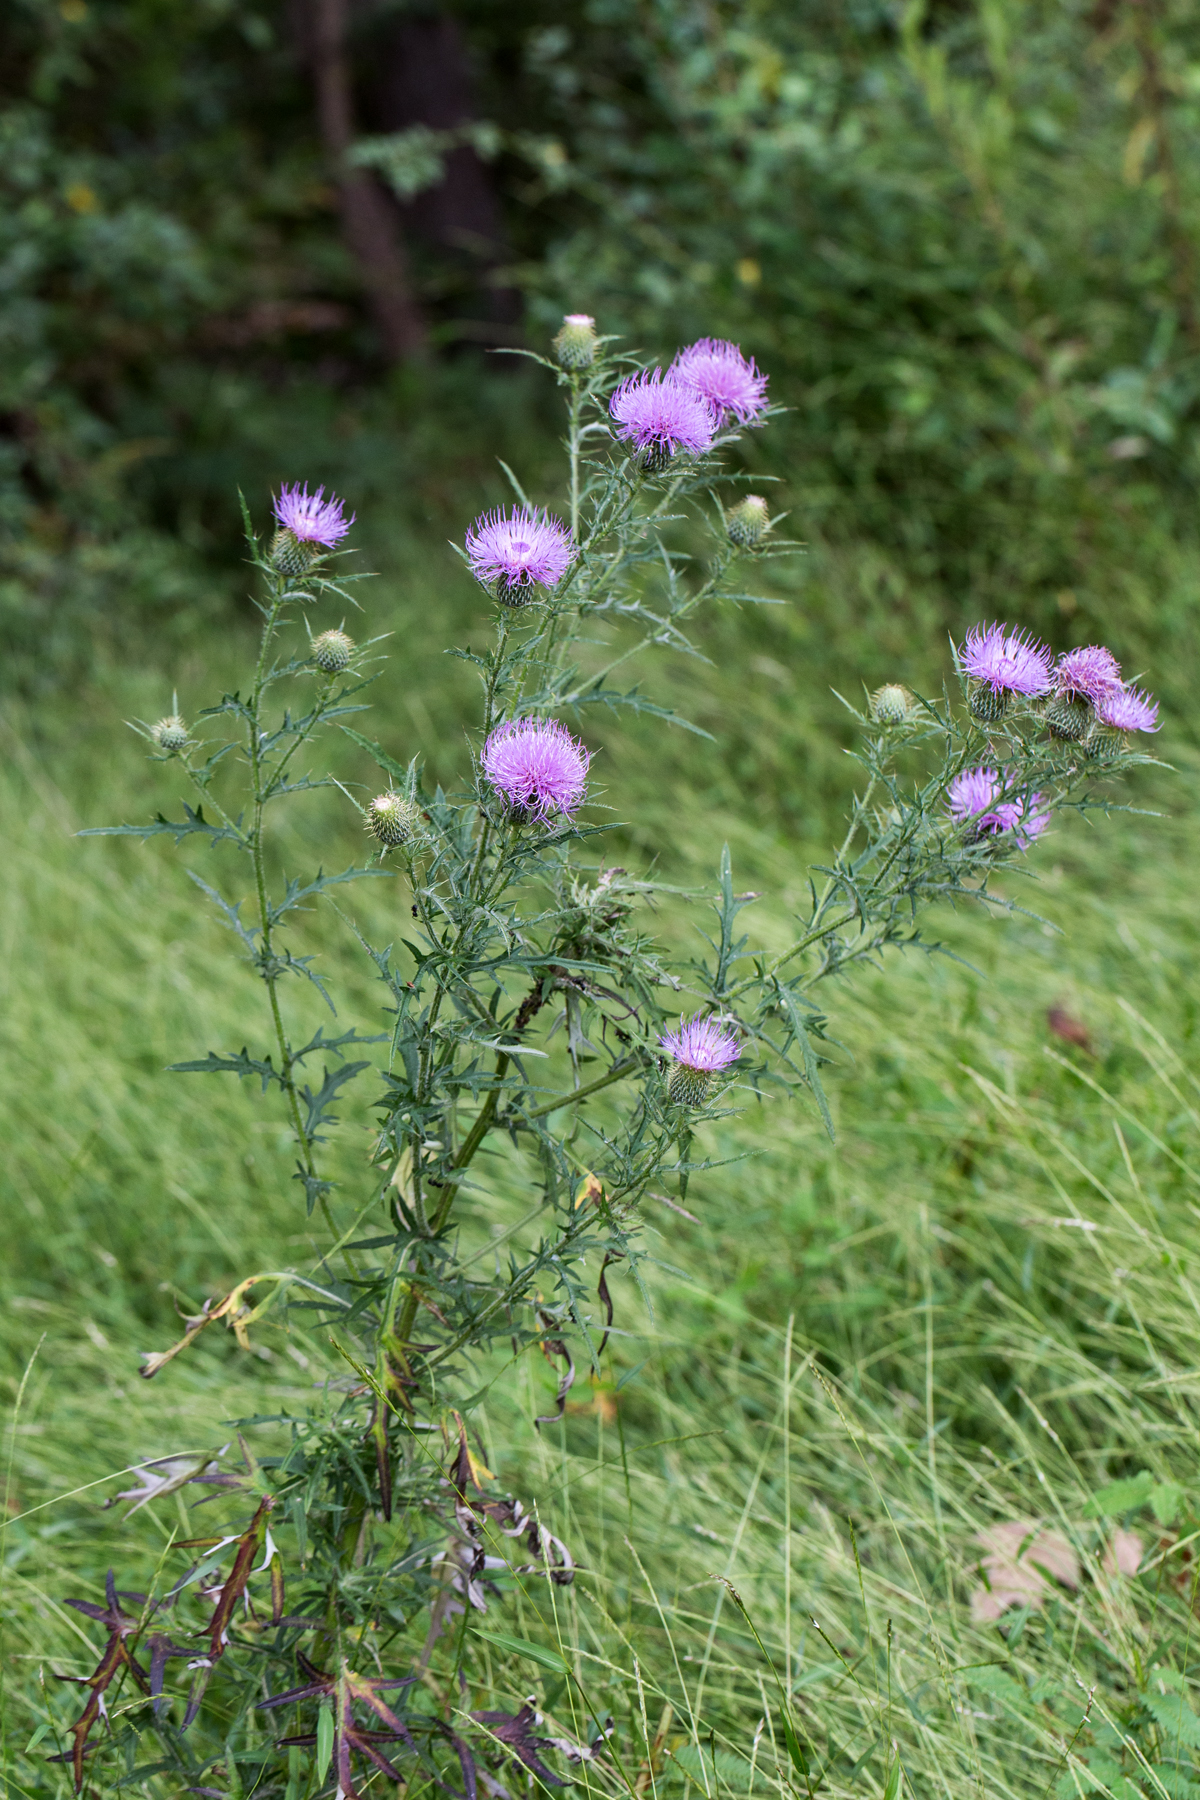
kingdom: Plantae
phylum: Tracheophyta
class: Magnoliopsida
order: Asterales
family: Asteraceae
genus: Cirsium
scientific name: Cirsium discolor
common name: Field thistle
